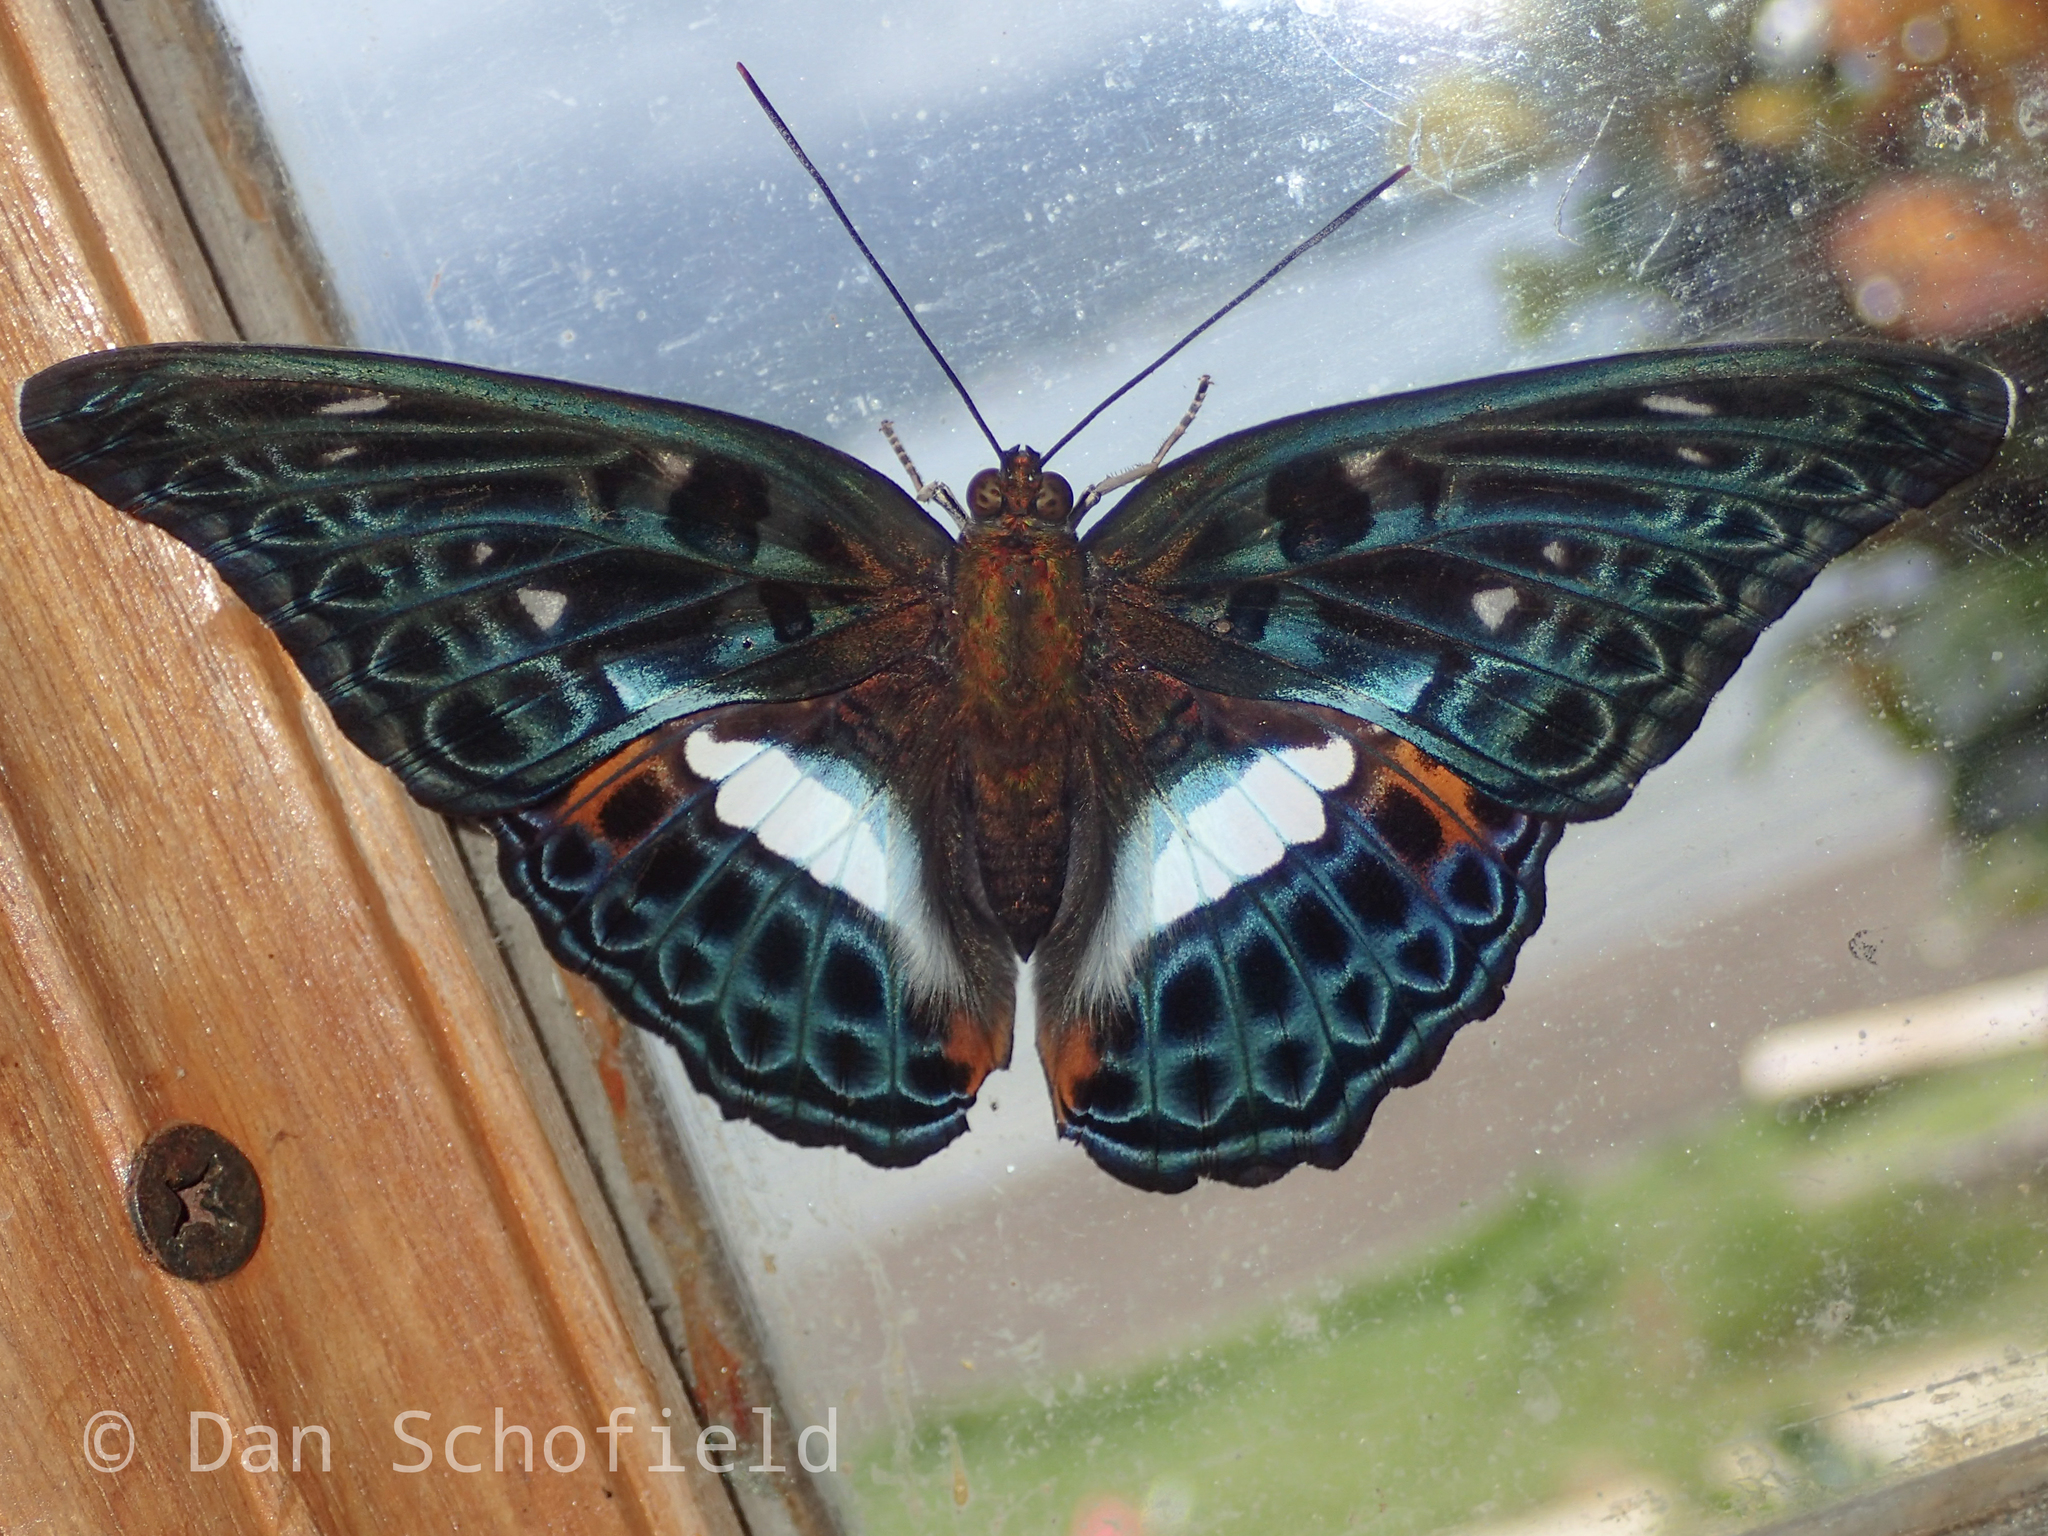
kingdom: Animalia
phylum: Arthropoda
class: Insecta
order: Lepidoptera
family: Nymphalidae
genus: Limenitis
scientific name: Limenitis
